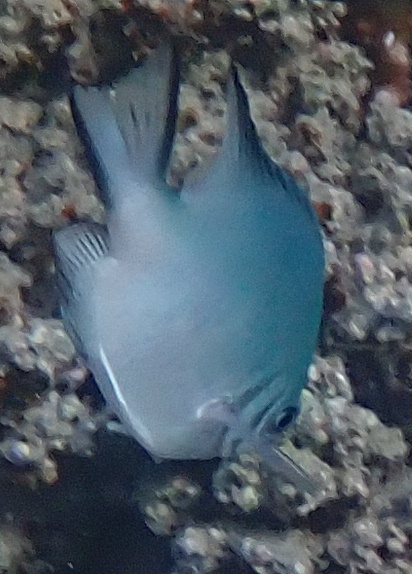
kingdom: Animalia
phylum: Chordata
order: Perciformes
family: Pomacentridae
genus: Amblyglyphidodon
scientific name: Amblyglyphidodon indicus
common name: Maldives damselfish
